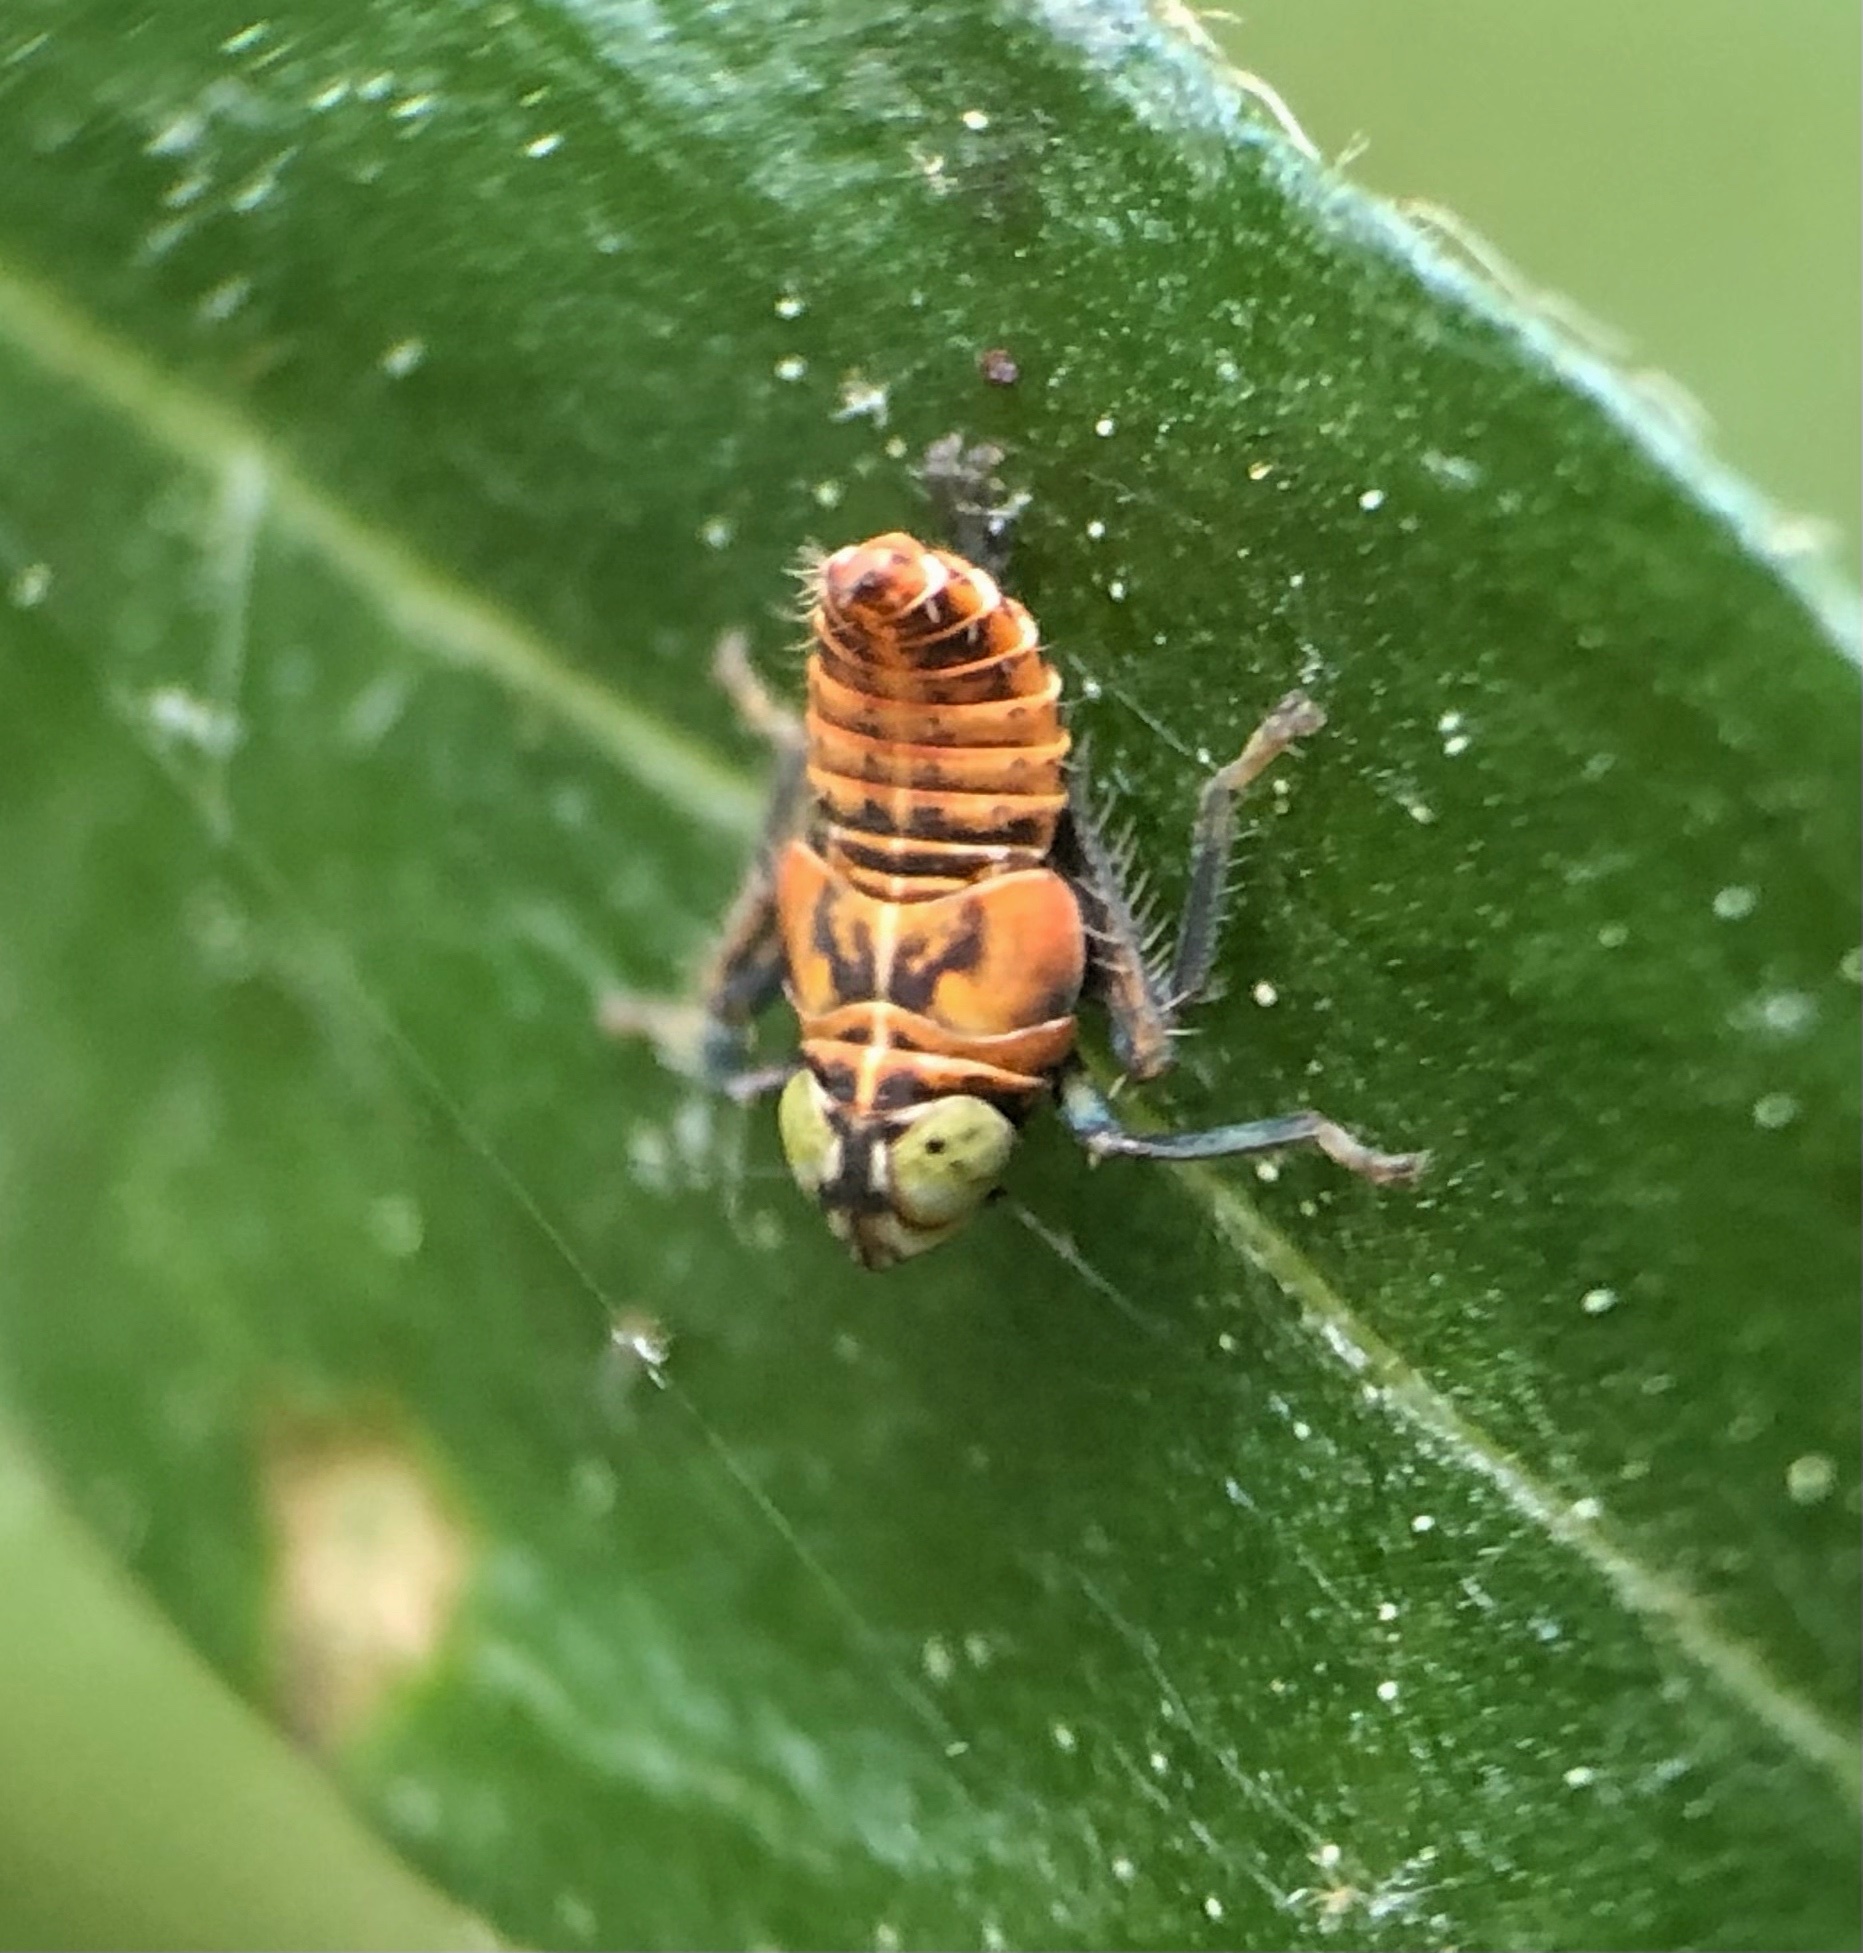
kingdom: Animalia
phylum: Arthropoda
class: Insecta
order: Hemiptera
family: Cicadellidae
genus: Jikradia
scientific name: Jikradia olitoria
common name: Coppery leafhopper
